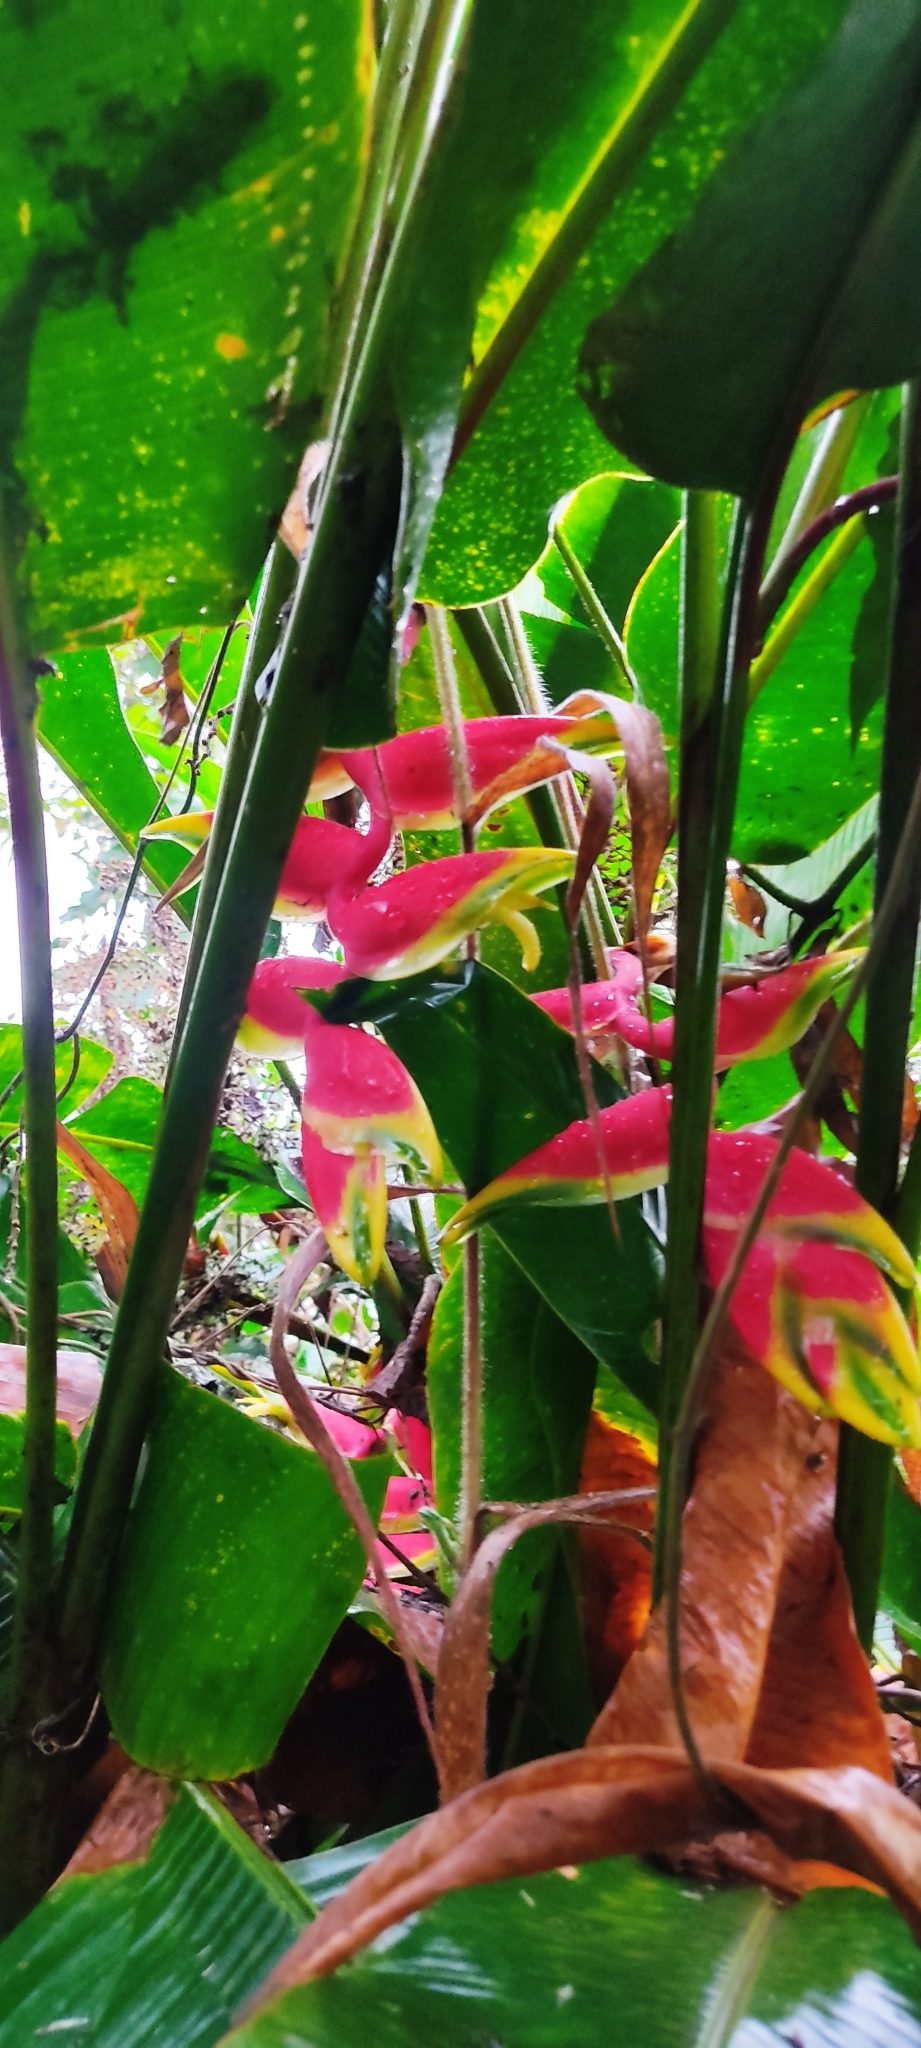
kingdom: Plantae
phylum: Tracheophyta
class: Liliopsida
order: Zingiberales
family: Heliconiaceae
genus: Heliconia
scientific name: Heliconia rostrata
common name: False bird of paradise
